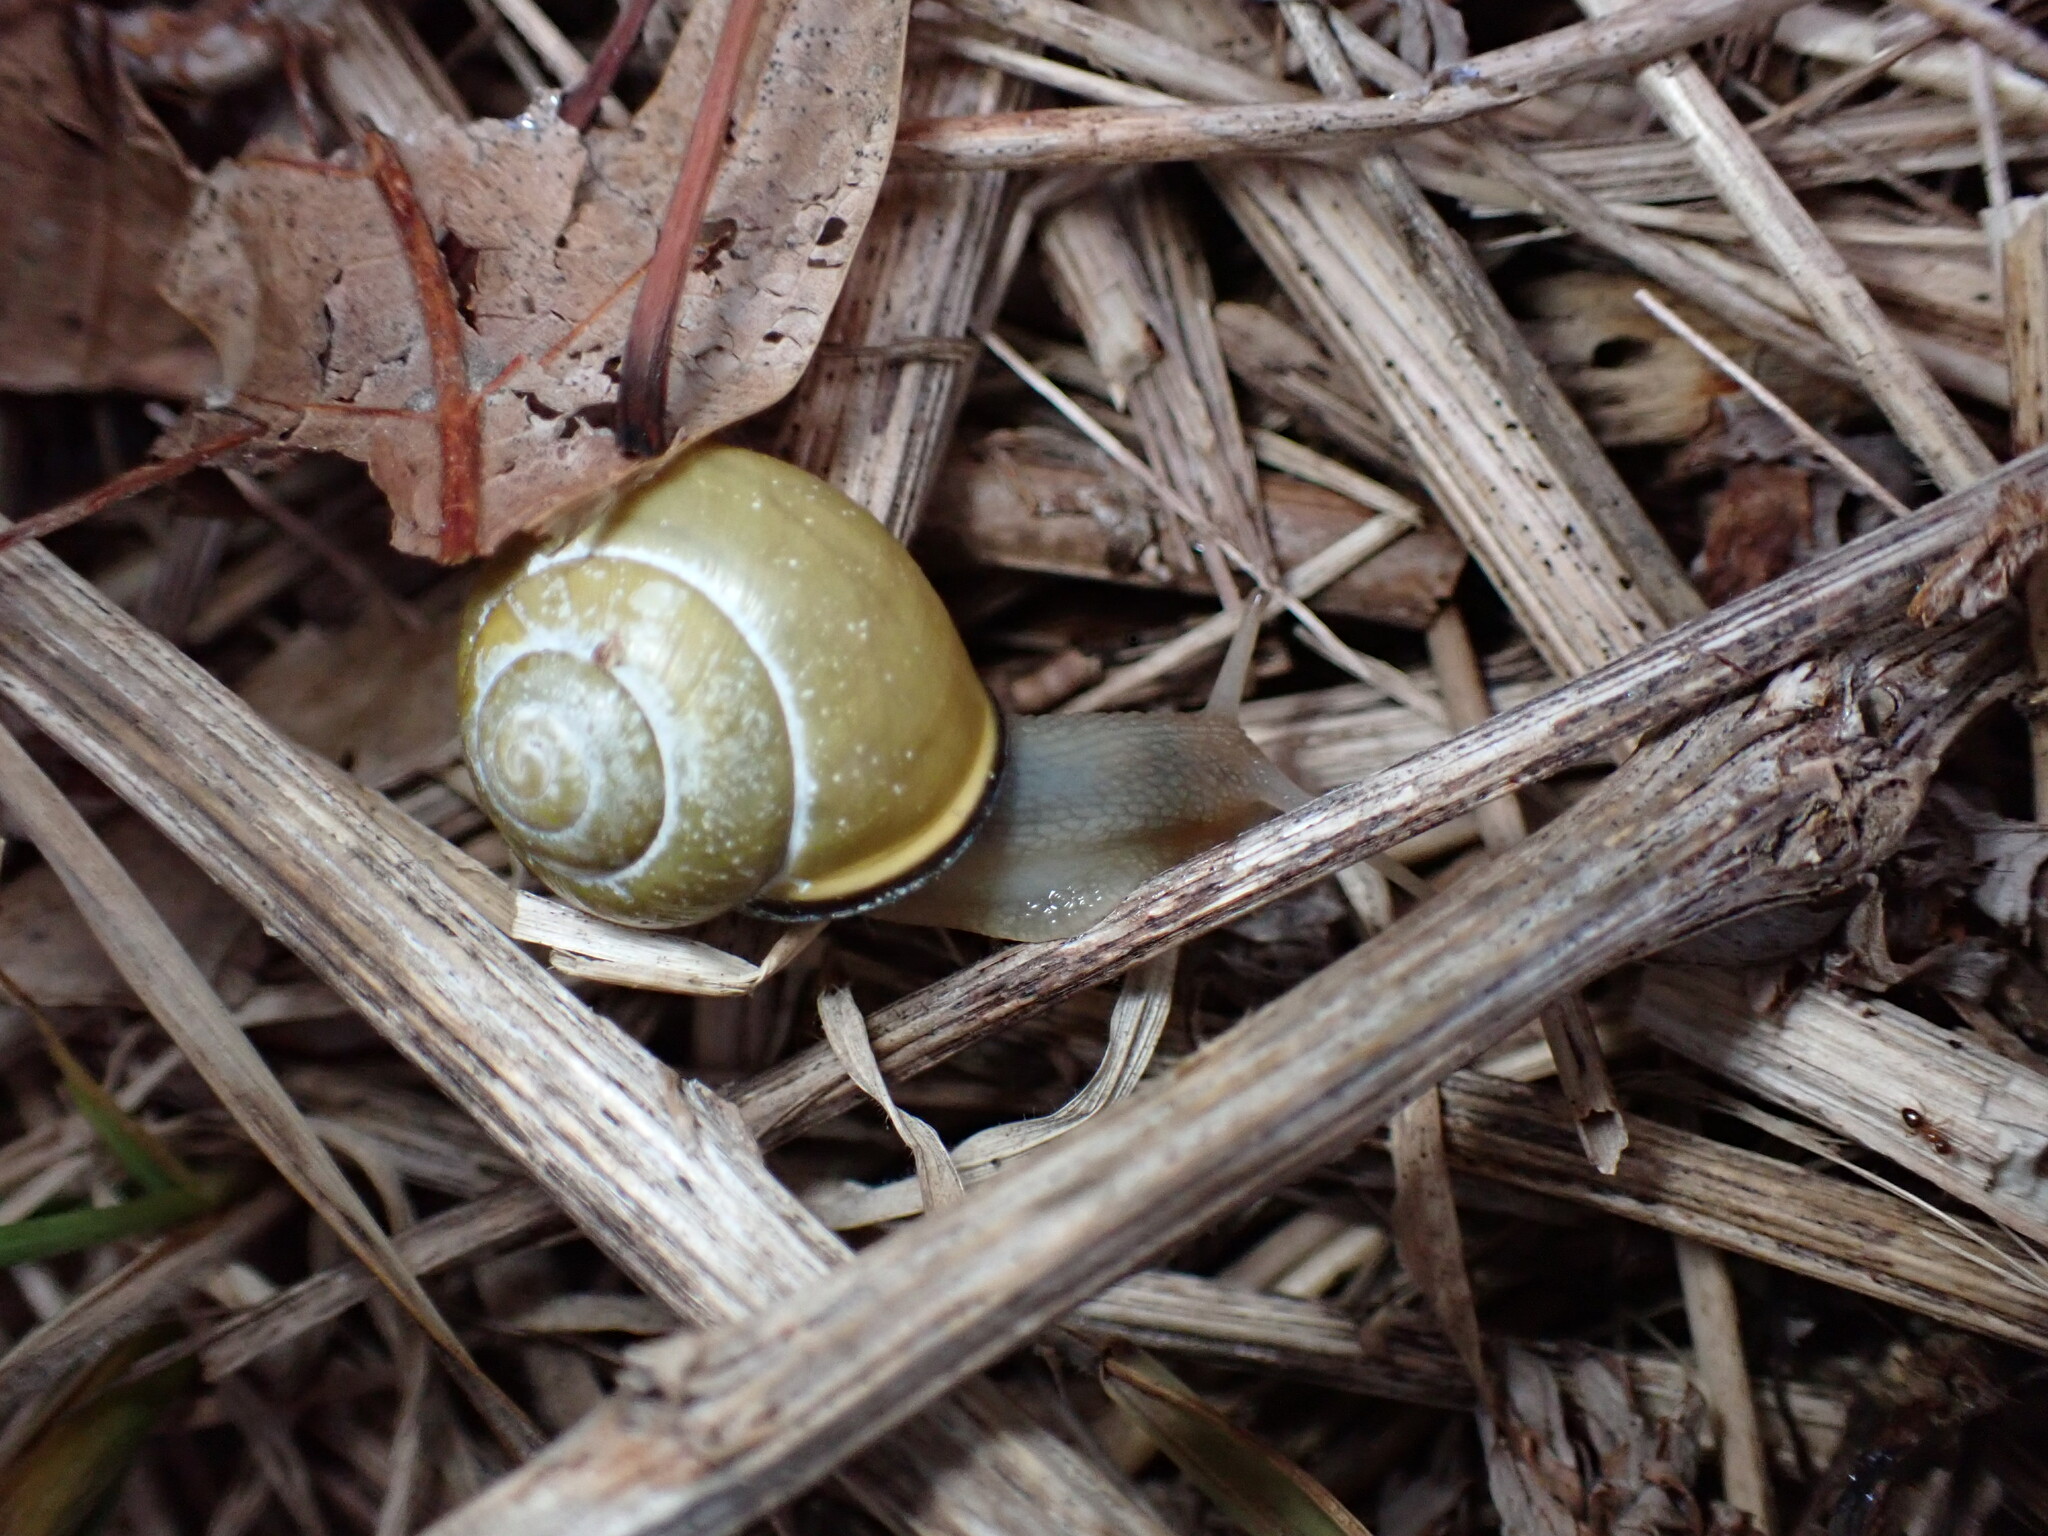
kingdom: Animalia
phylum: Mollusca
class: Gastropoda
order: Stylommatophora
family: Helicidae
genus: Cepaea
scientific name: Cepaea nemoralis
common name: Grovesnail
